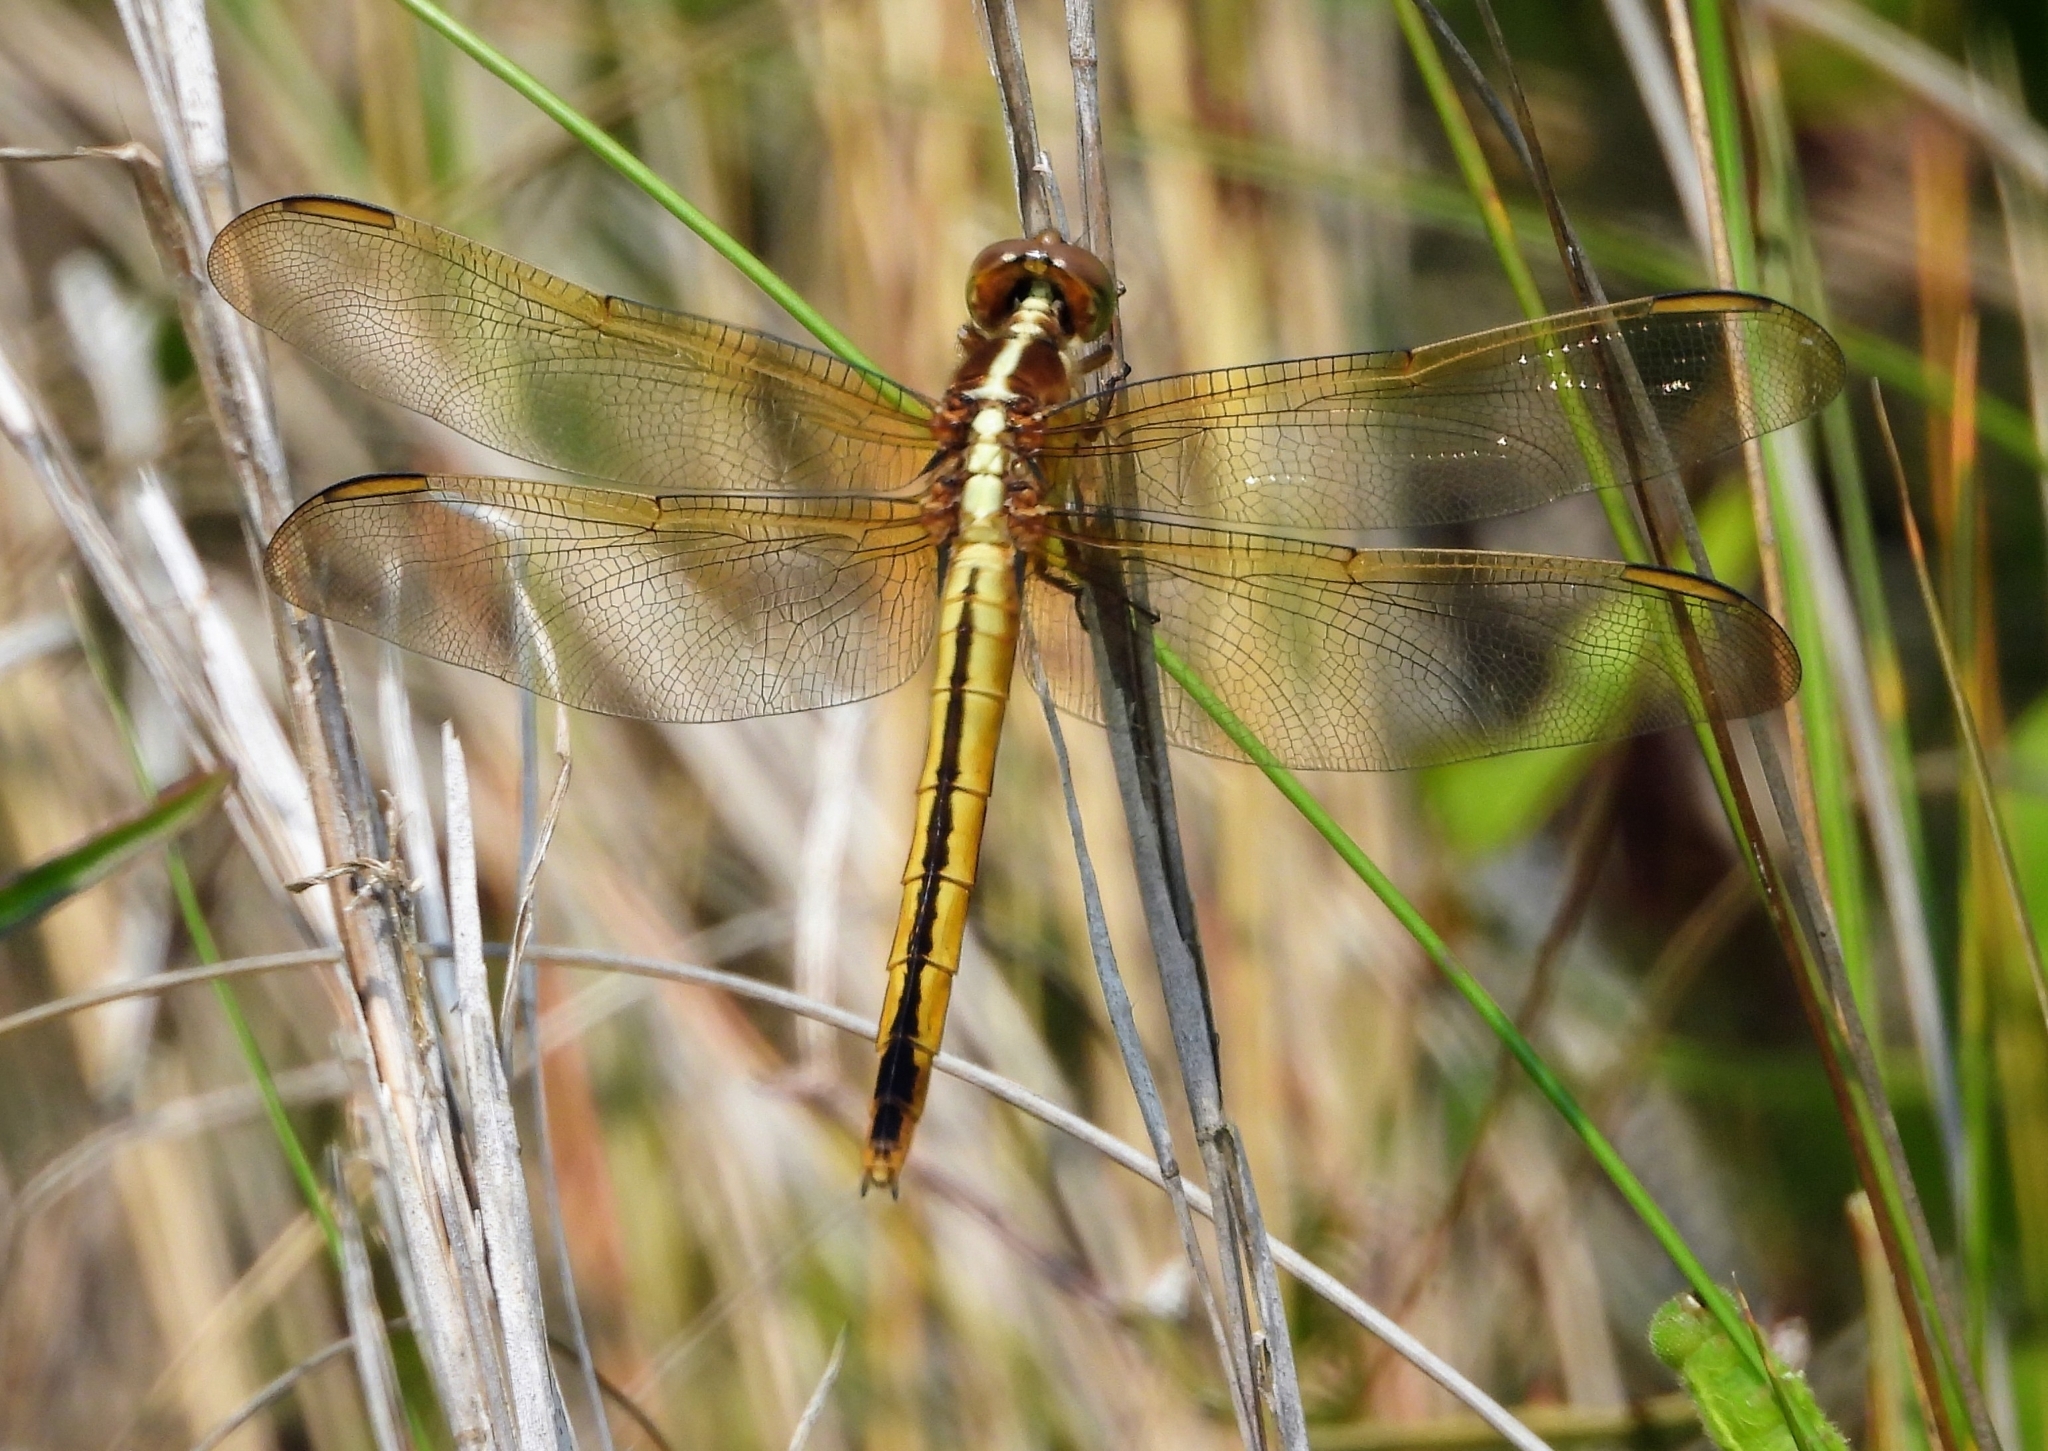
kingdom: Animalia
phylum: Arthropoda
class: Insecta
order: Odonata
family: Libellulidae
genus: Libellula
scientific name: Libellula needhami
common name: Needham's skimmer
